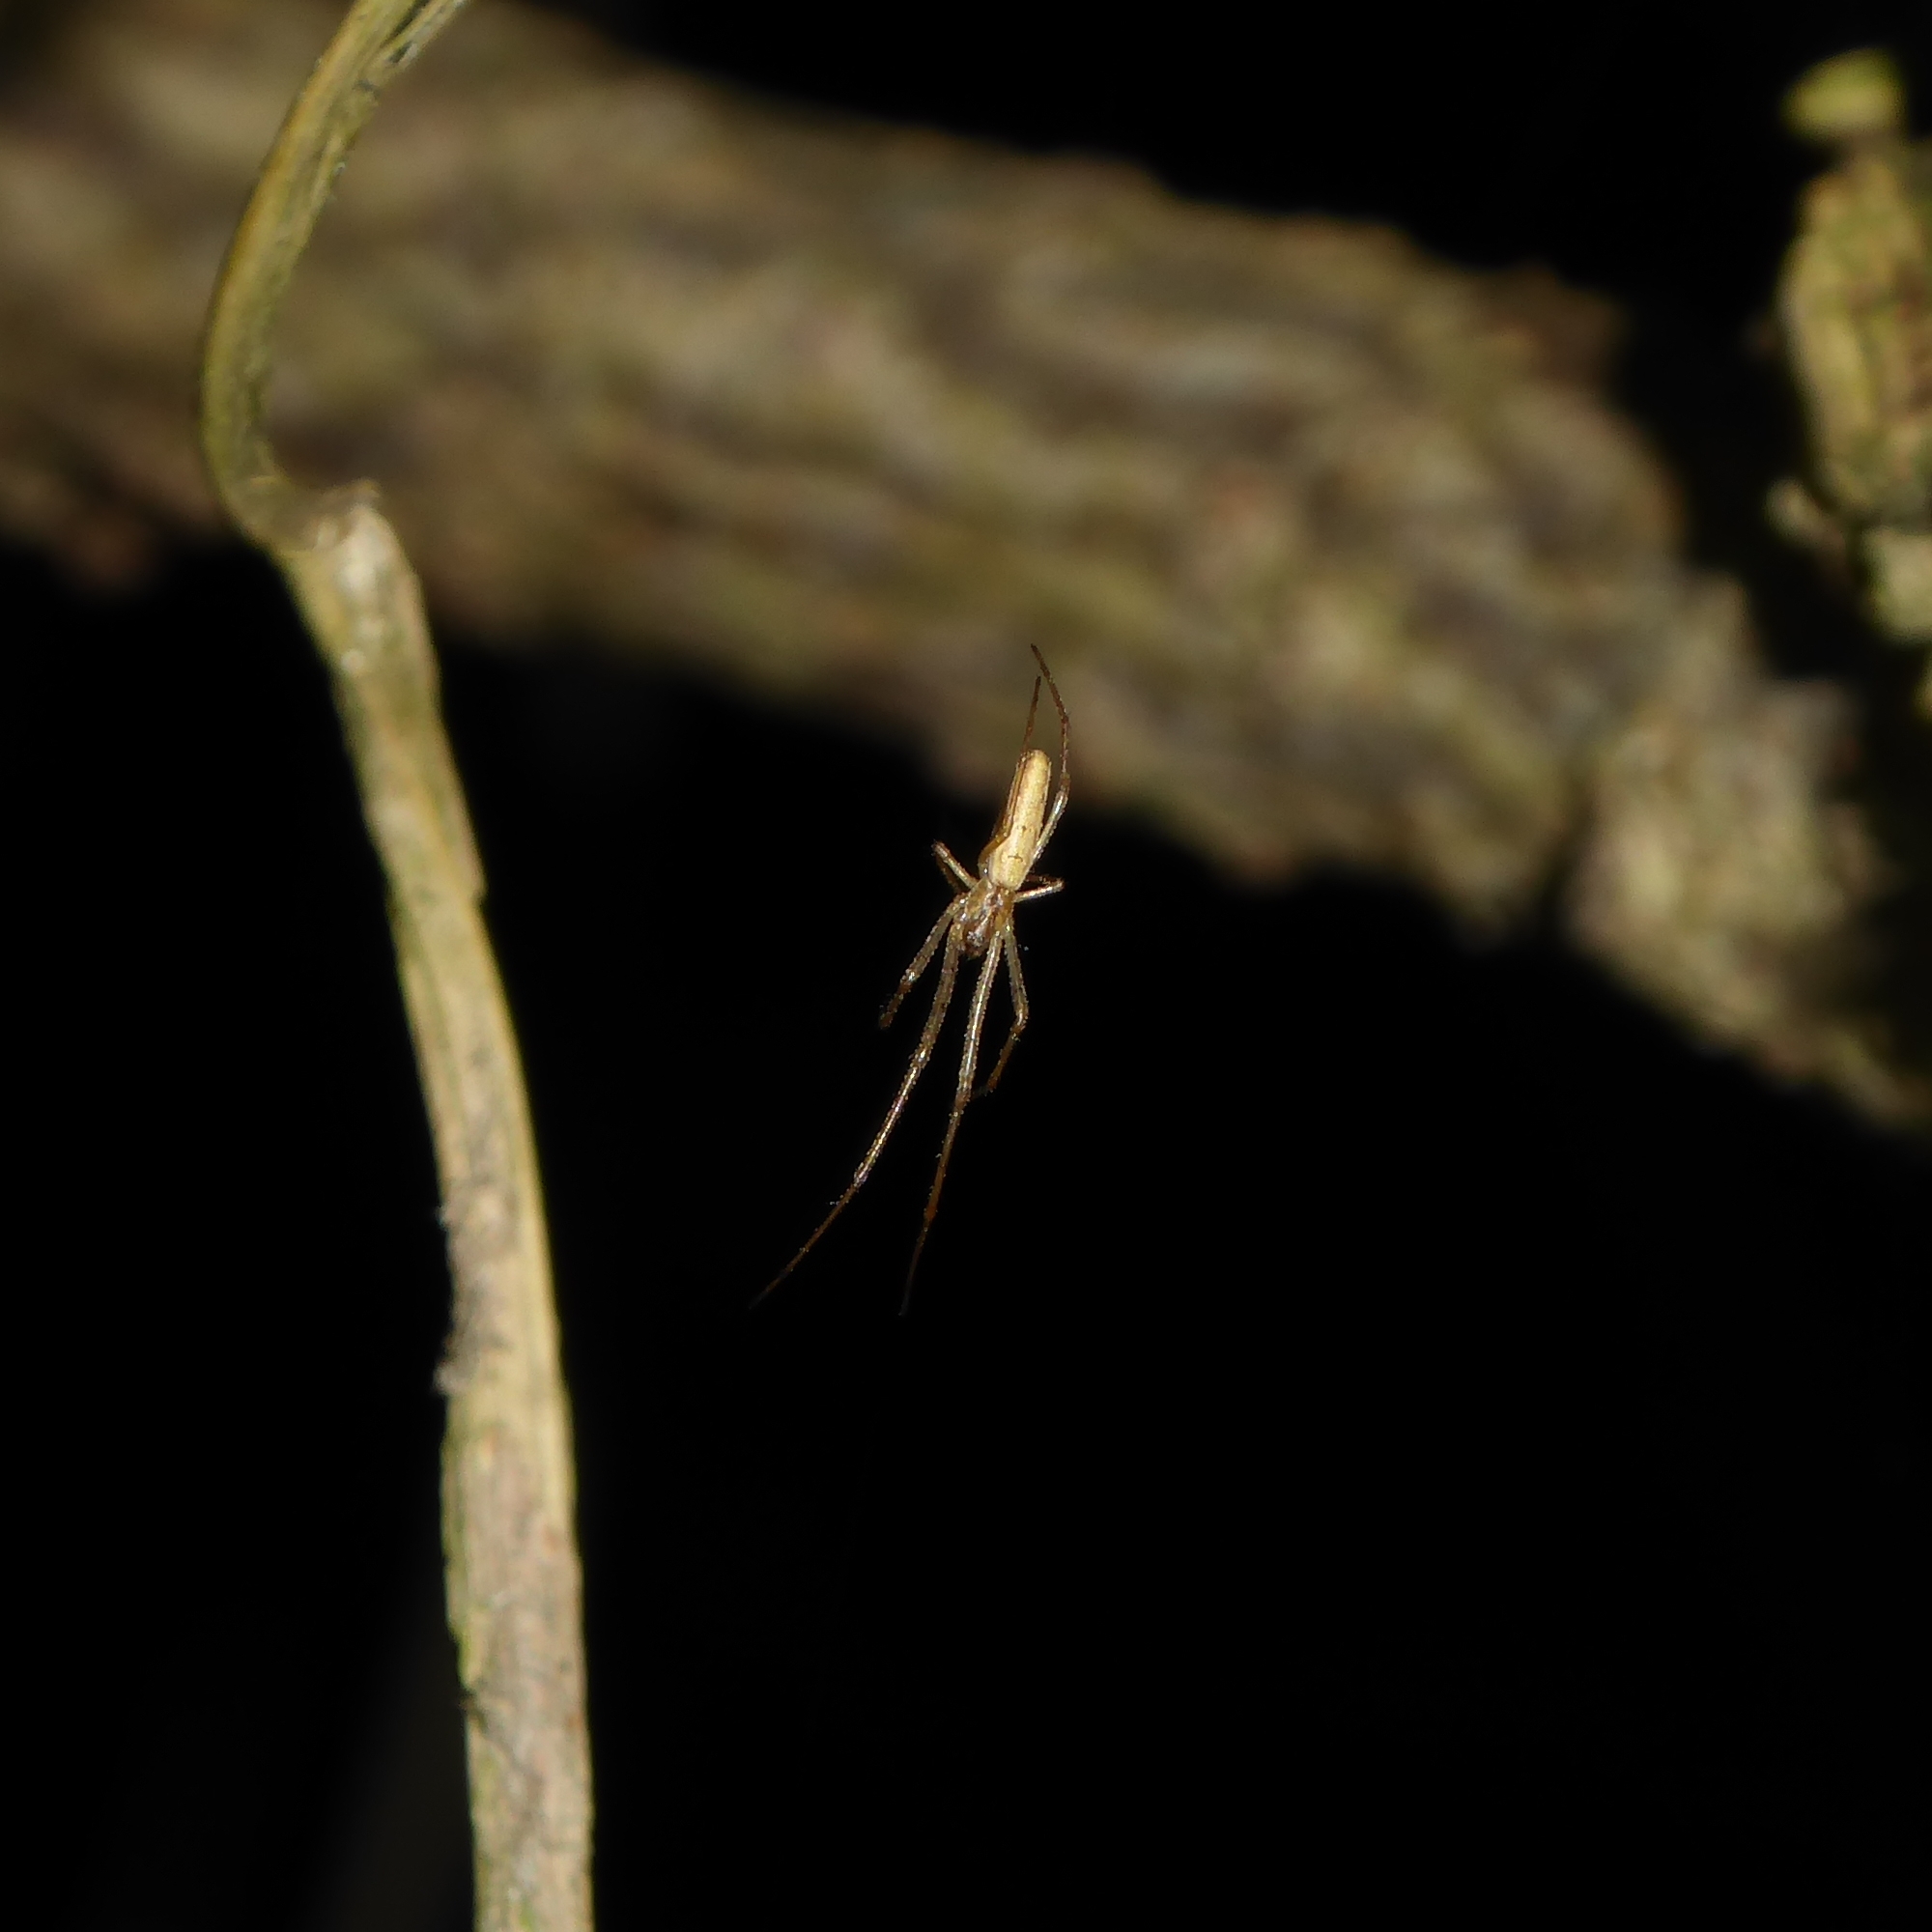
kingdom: Animalia
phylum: Arthropoda
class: Arachnida
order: Araneae
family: Tetragnathidae
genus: Tetragnatha
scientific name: Tetragnatha
